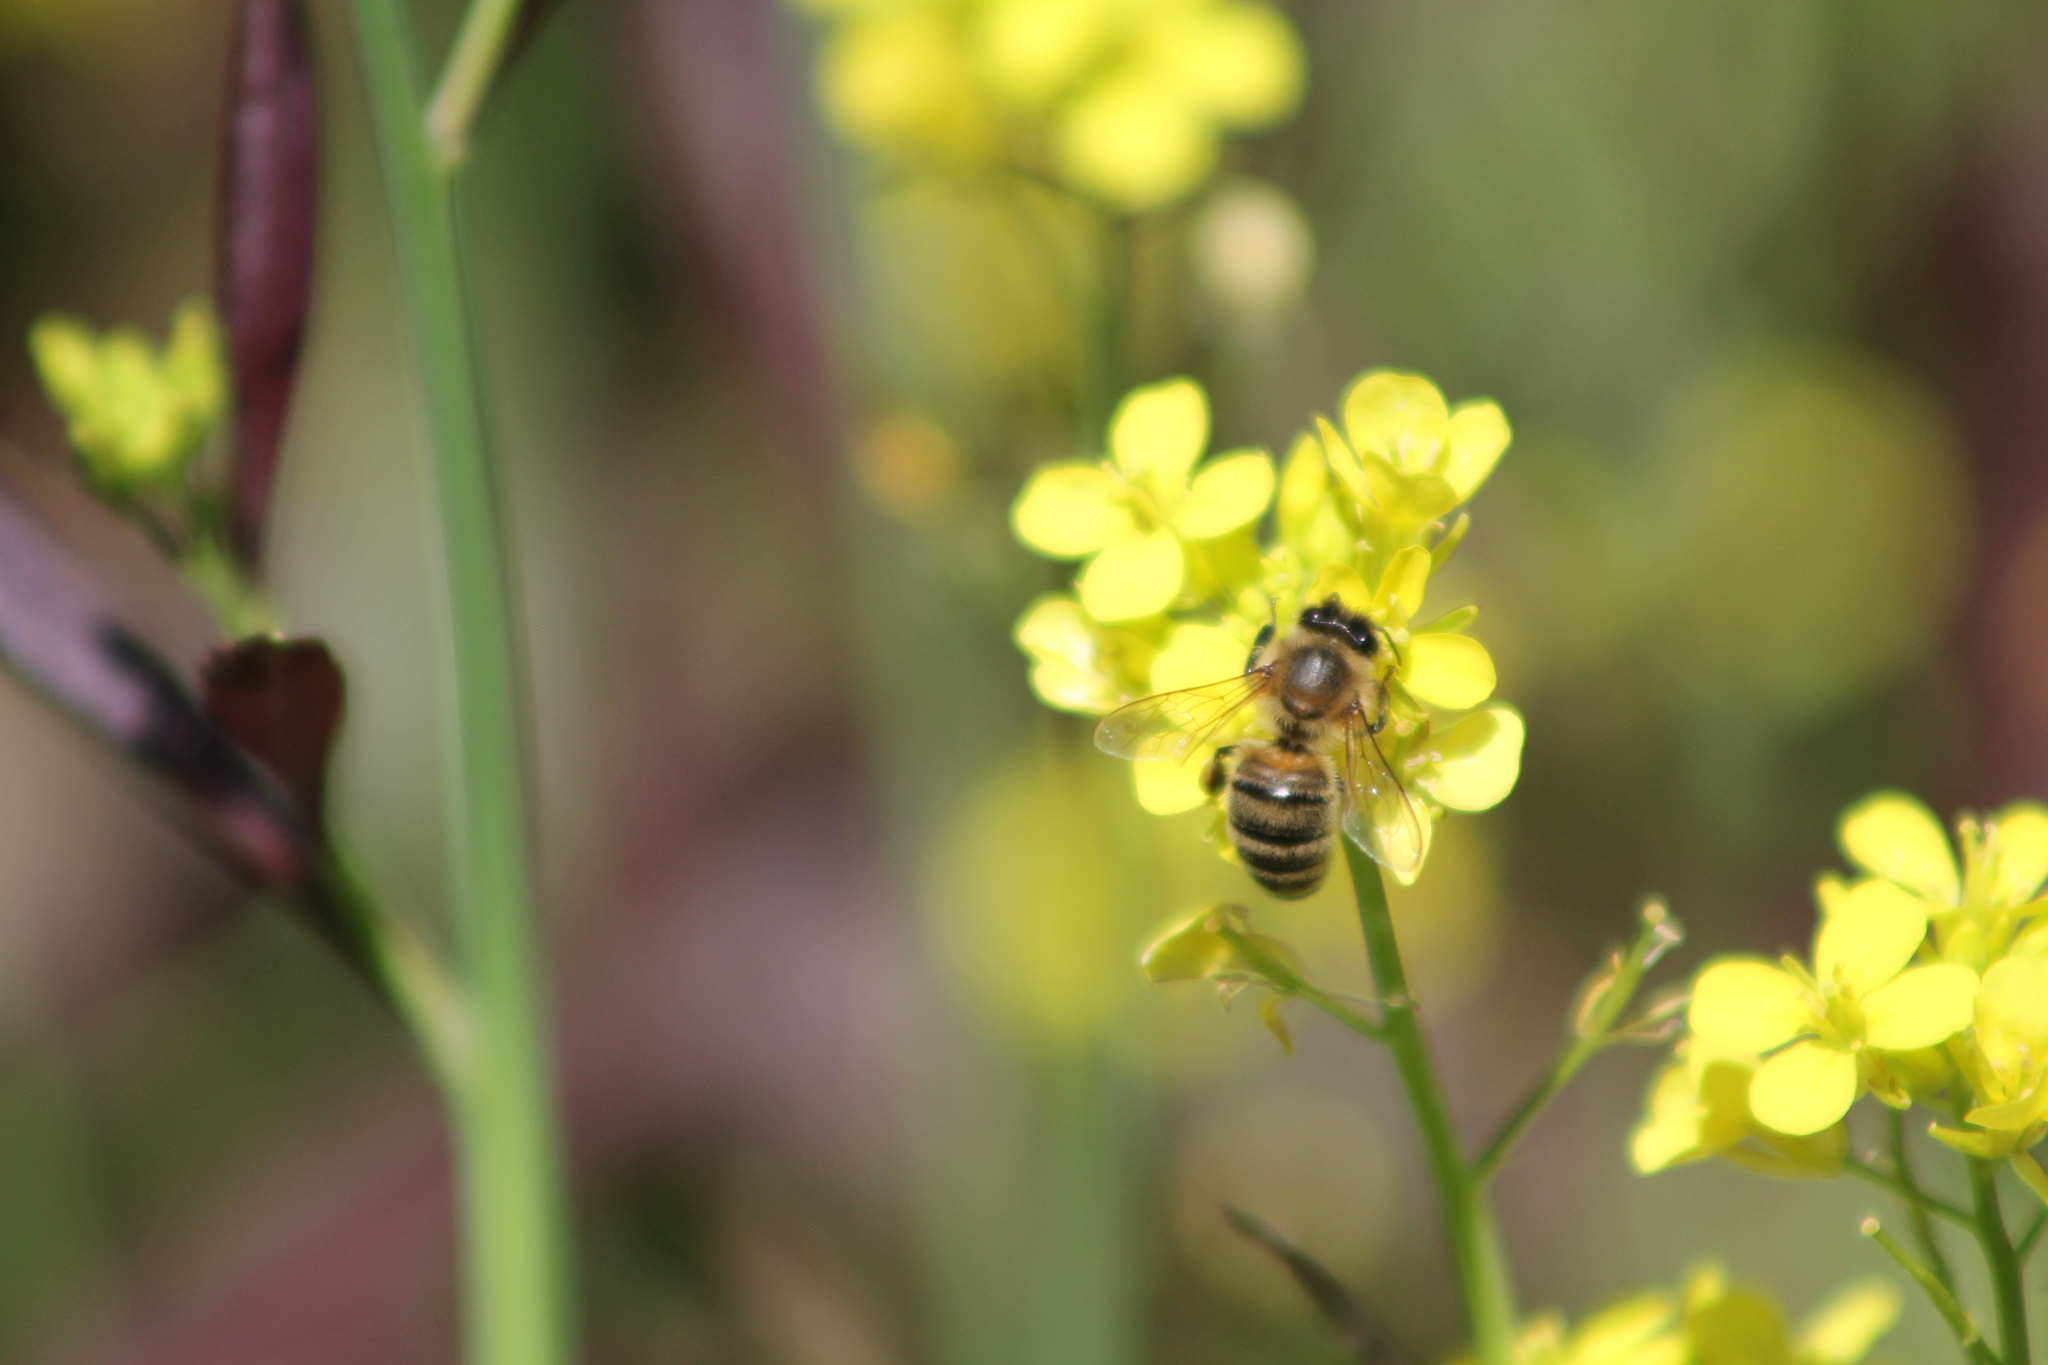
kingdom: Animalia
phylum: Arthropoda
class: Insecta
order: Hymenoptera
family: Apidae
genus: Apis
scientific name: Apis mellifera
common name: Honey bee
